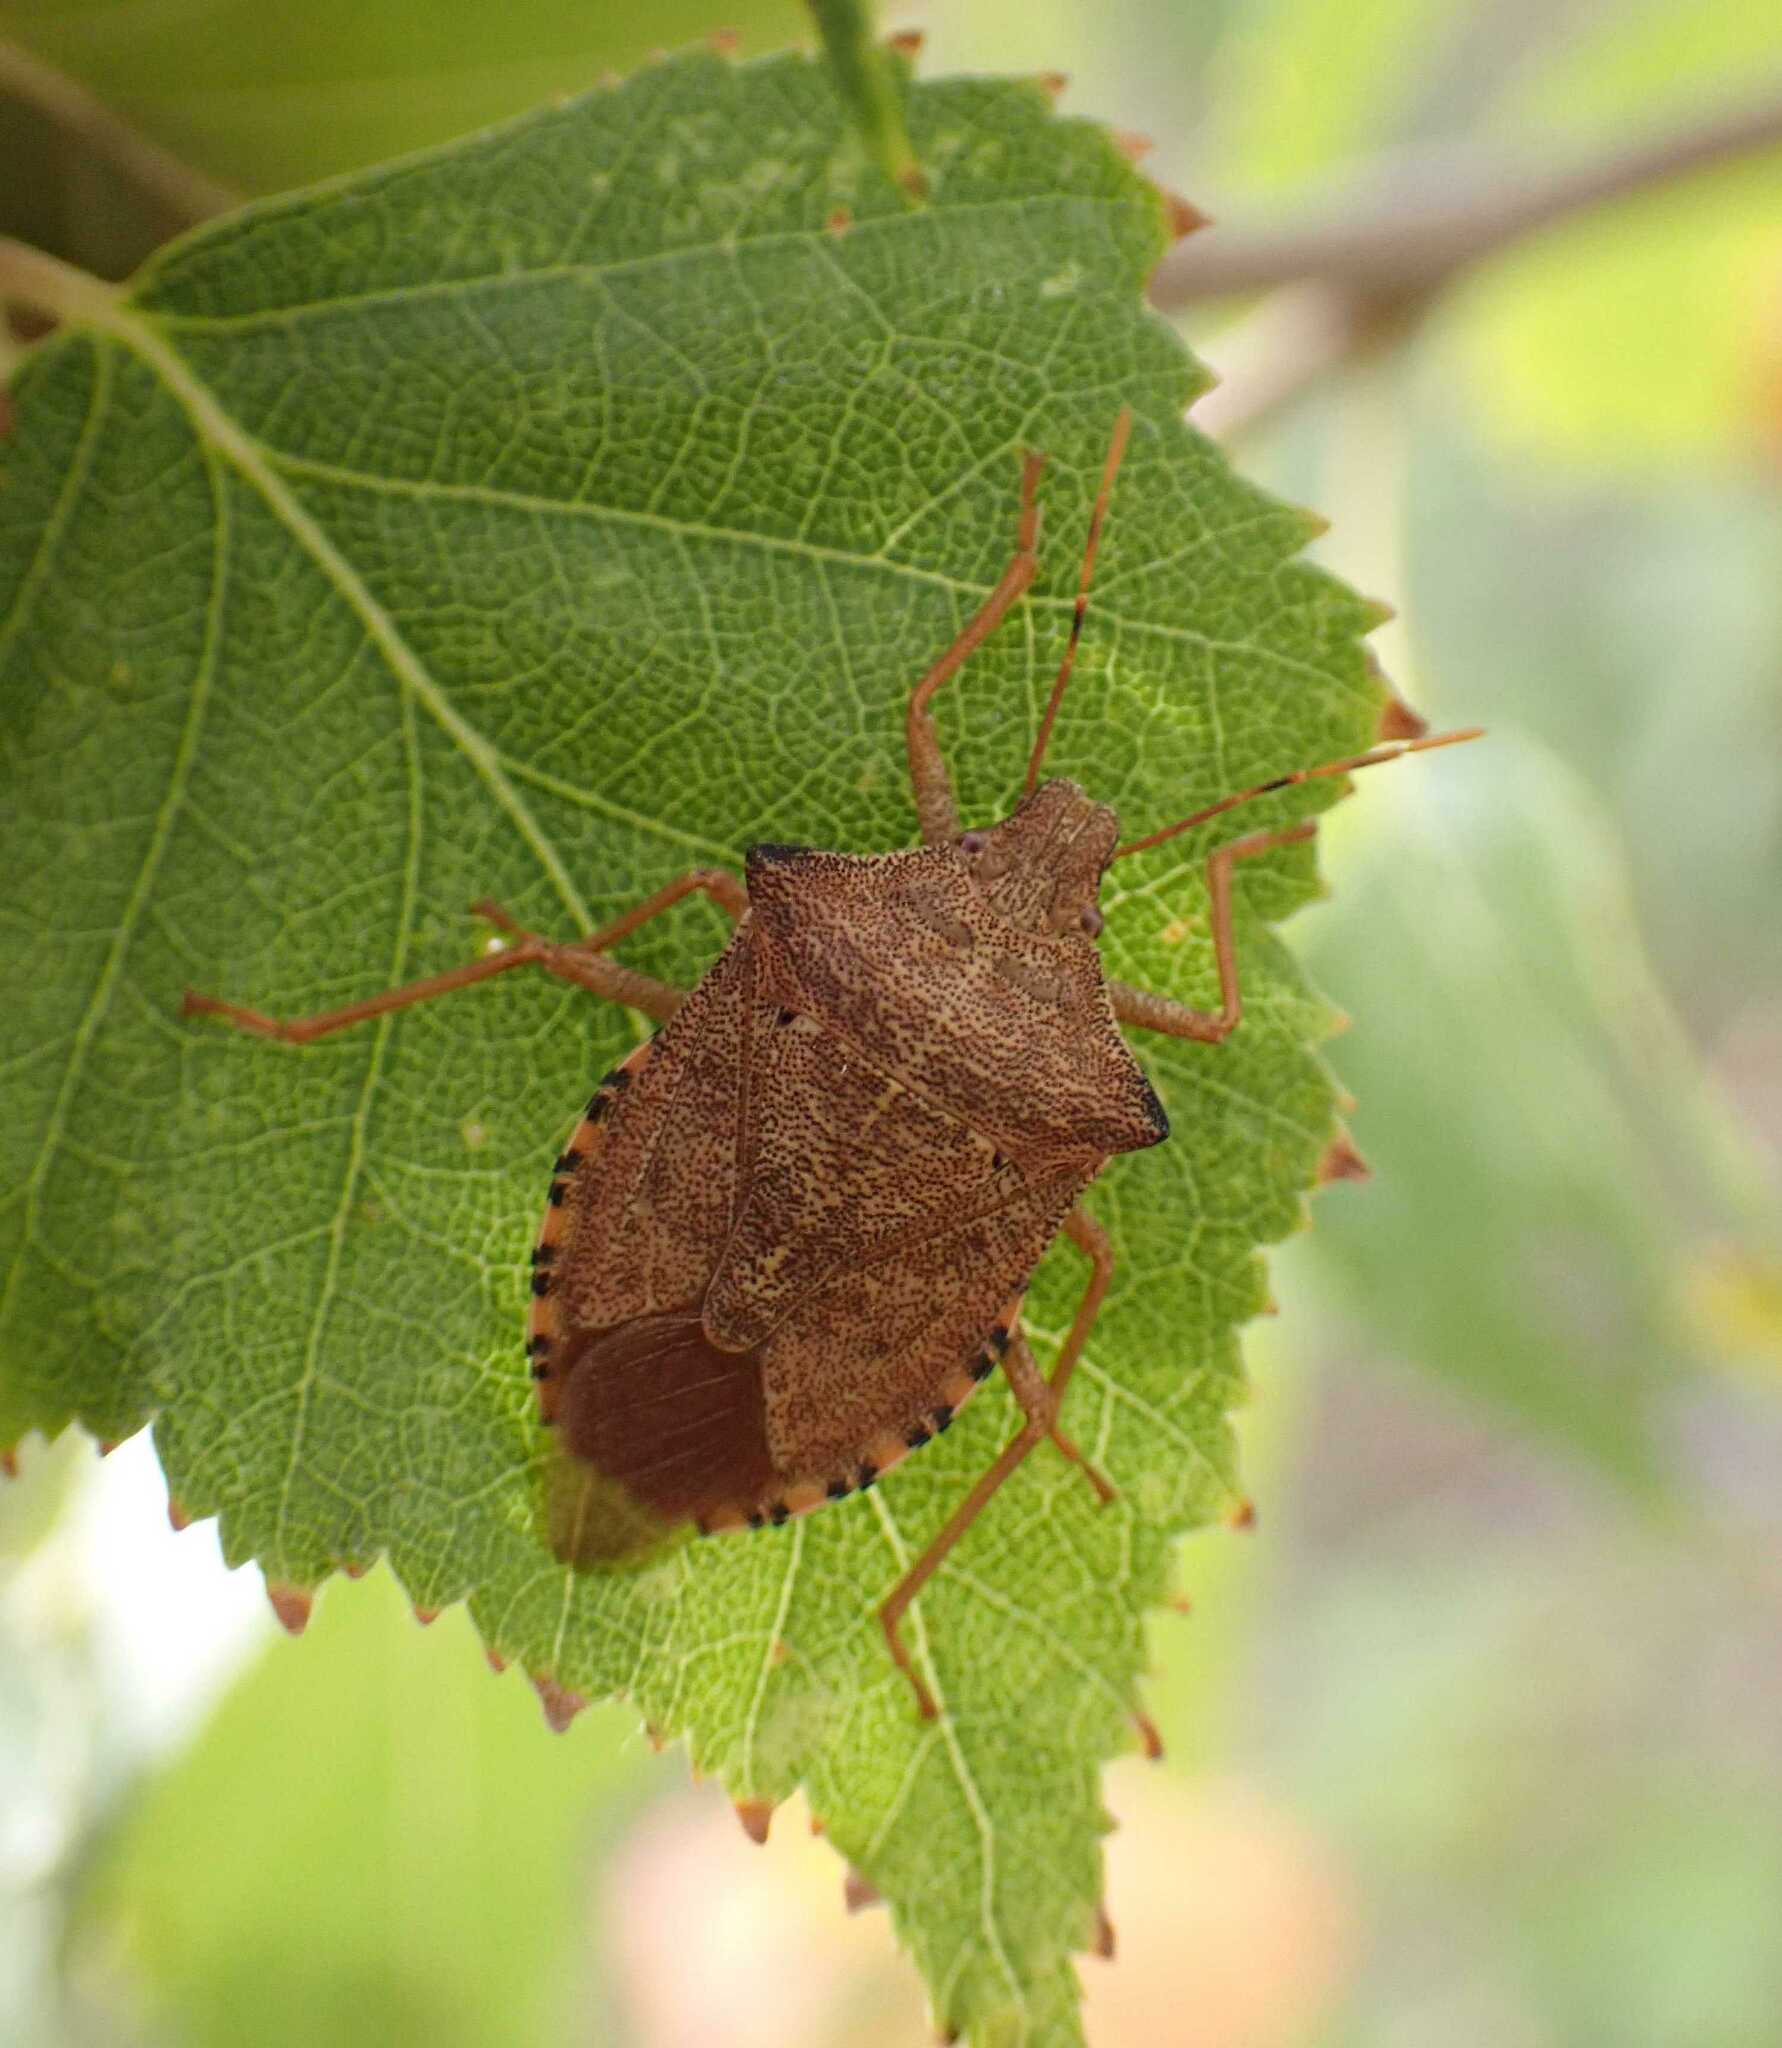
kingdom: Animalia
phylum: Arthropoda
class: Insecta
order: Hemiptera
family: Pentatomidae
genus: Arma
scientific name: Arma custos
